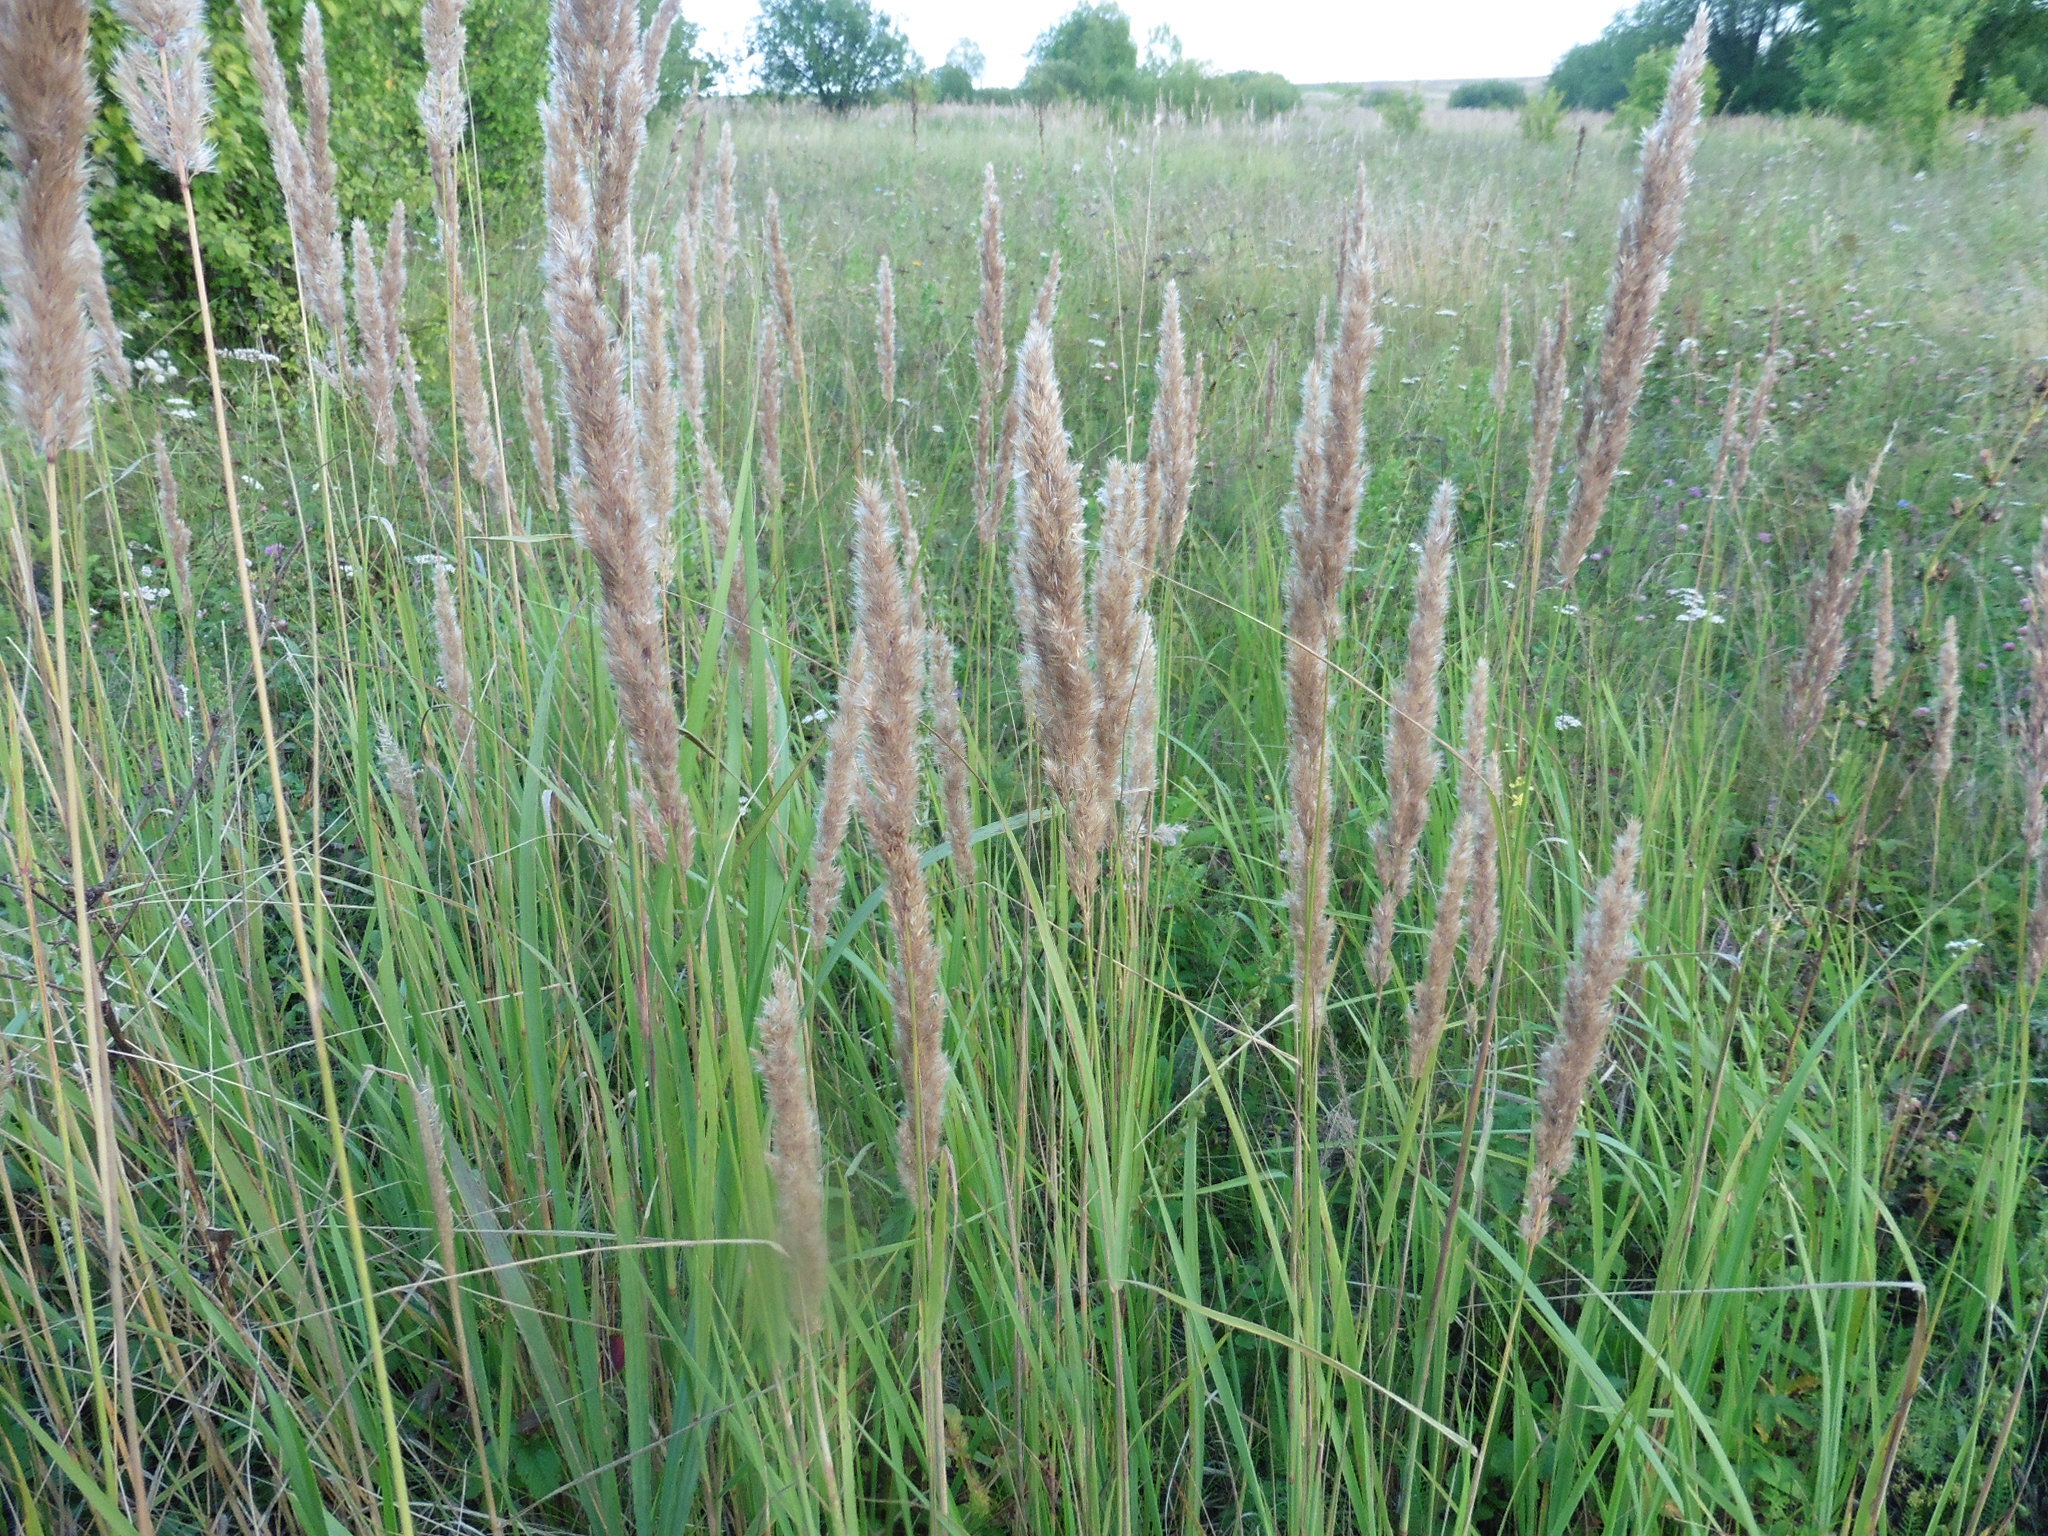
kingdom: Plantae
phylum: Tracheophyta
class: Liliopsida
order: Poales
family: Poaceae
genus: Calamagrostis
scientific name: Calamagrostis epigejos
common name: Wood small-reed
